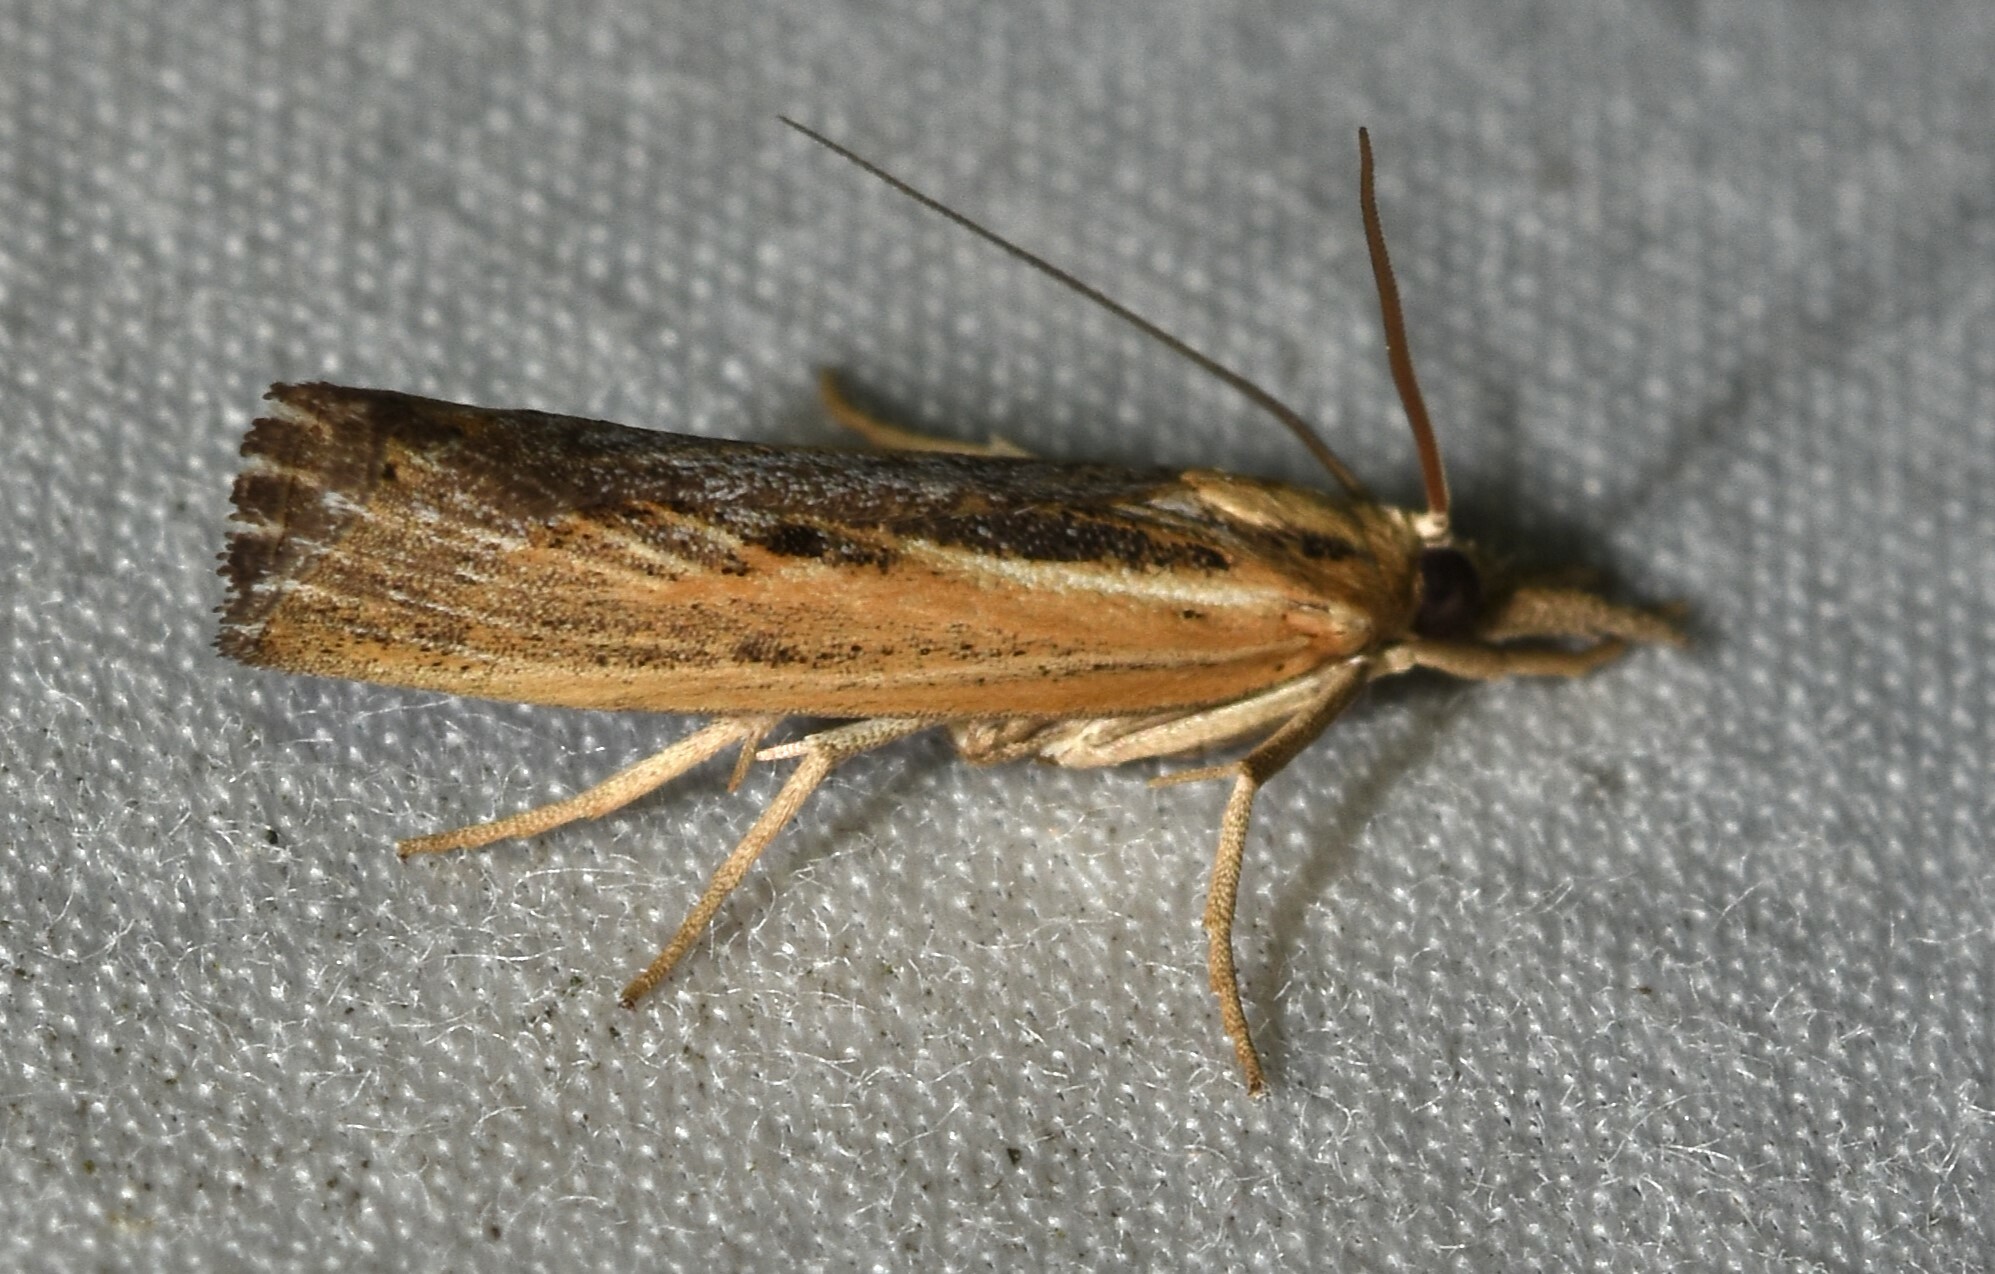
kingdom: Animalia
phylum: Arthropoda
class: Insecta
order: Lepidoptera
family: Crambidae
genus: Pediasia
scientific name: Pediasia trisecta
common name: Sod webworm moth
